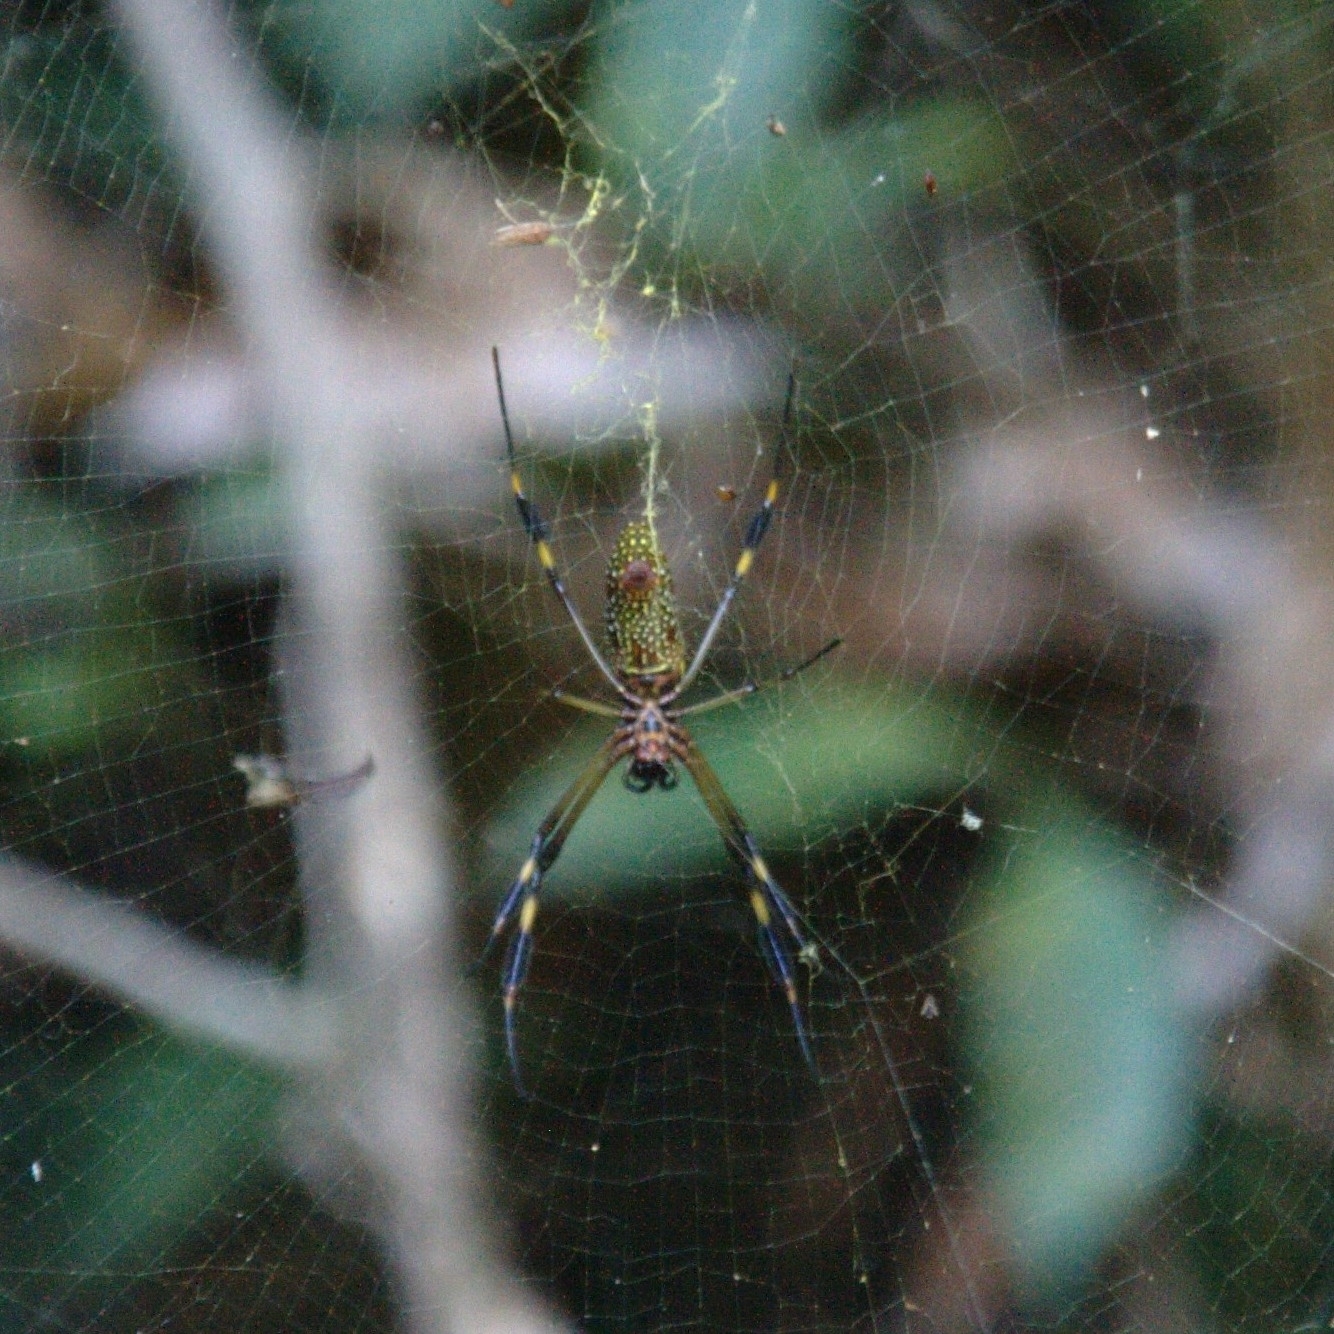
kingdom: Animalia
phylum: Arthropoda
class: Arachnida
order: Araneae
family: Araneidae
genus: Trichonephila
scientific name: Trichonephila clavipes
